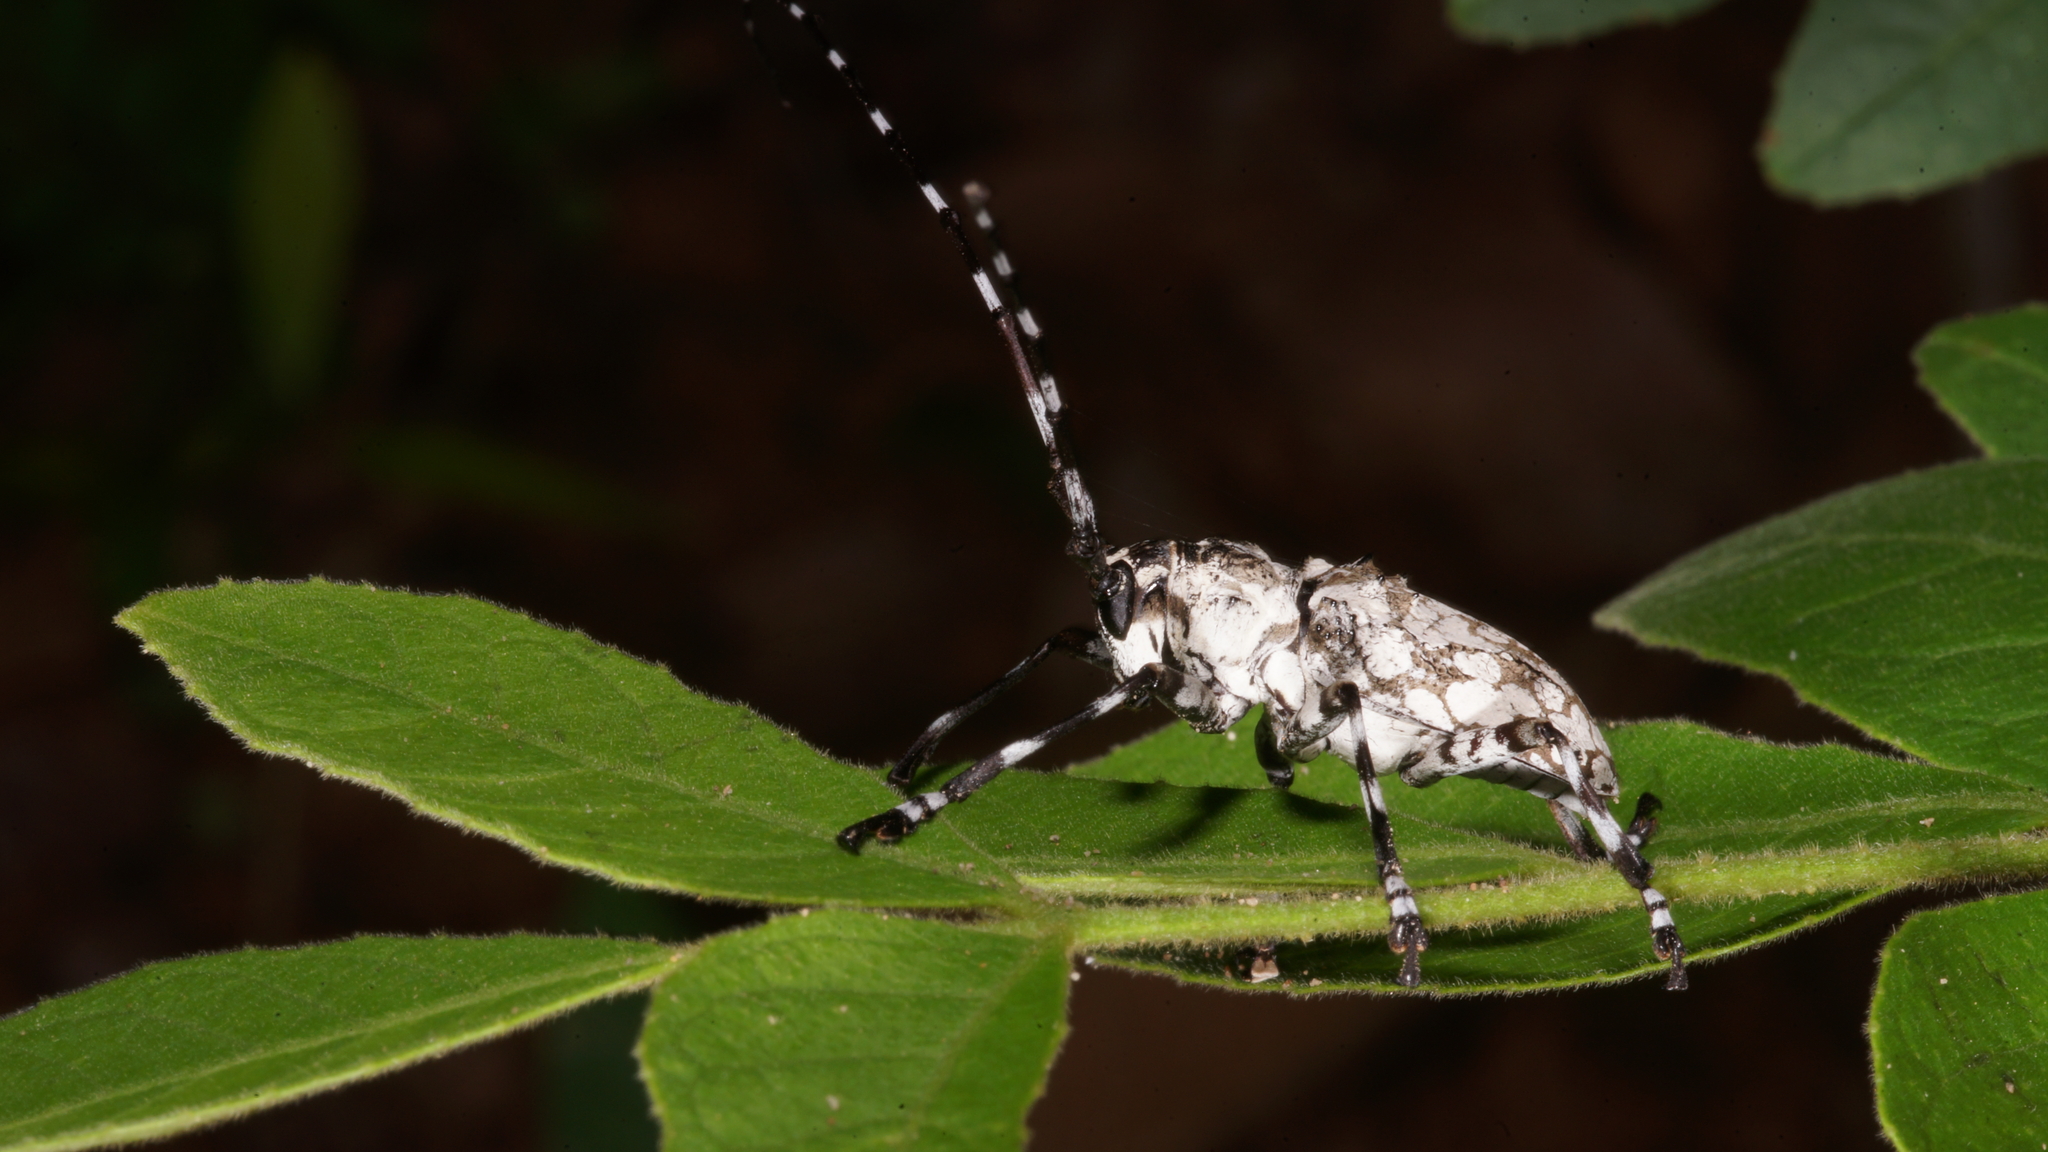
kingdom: Animalia
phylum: Arthropoda
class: Insecta
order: Coleoptera
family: Cerambycidae
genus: Palimna
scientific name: Palimna annulata
